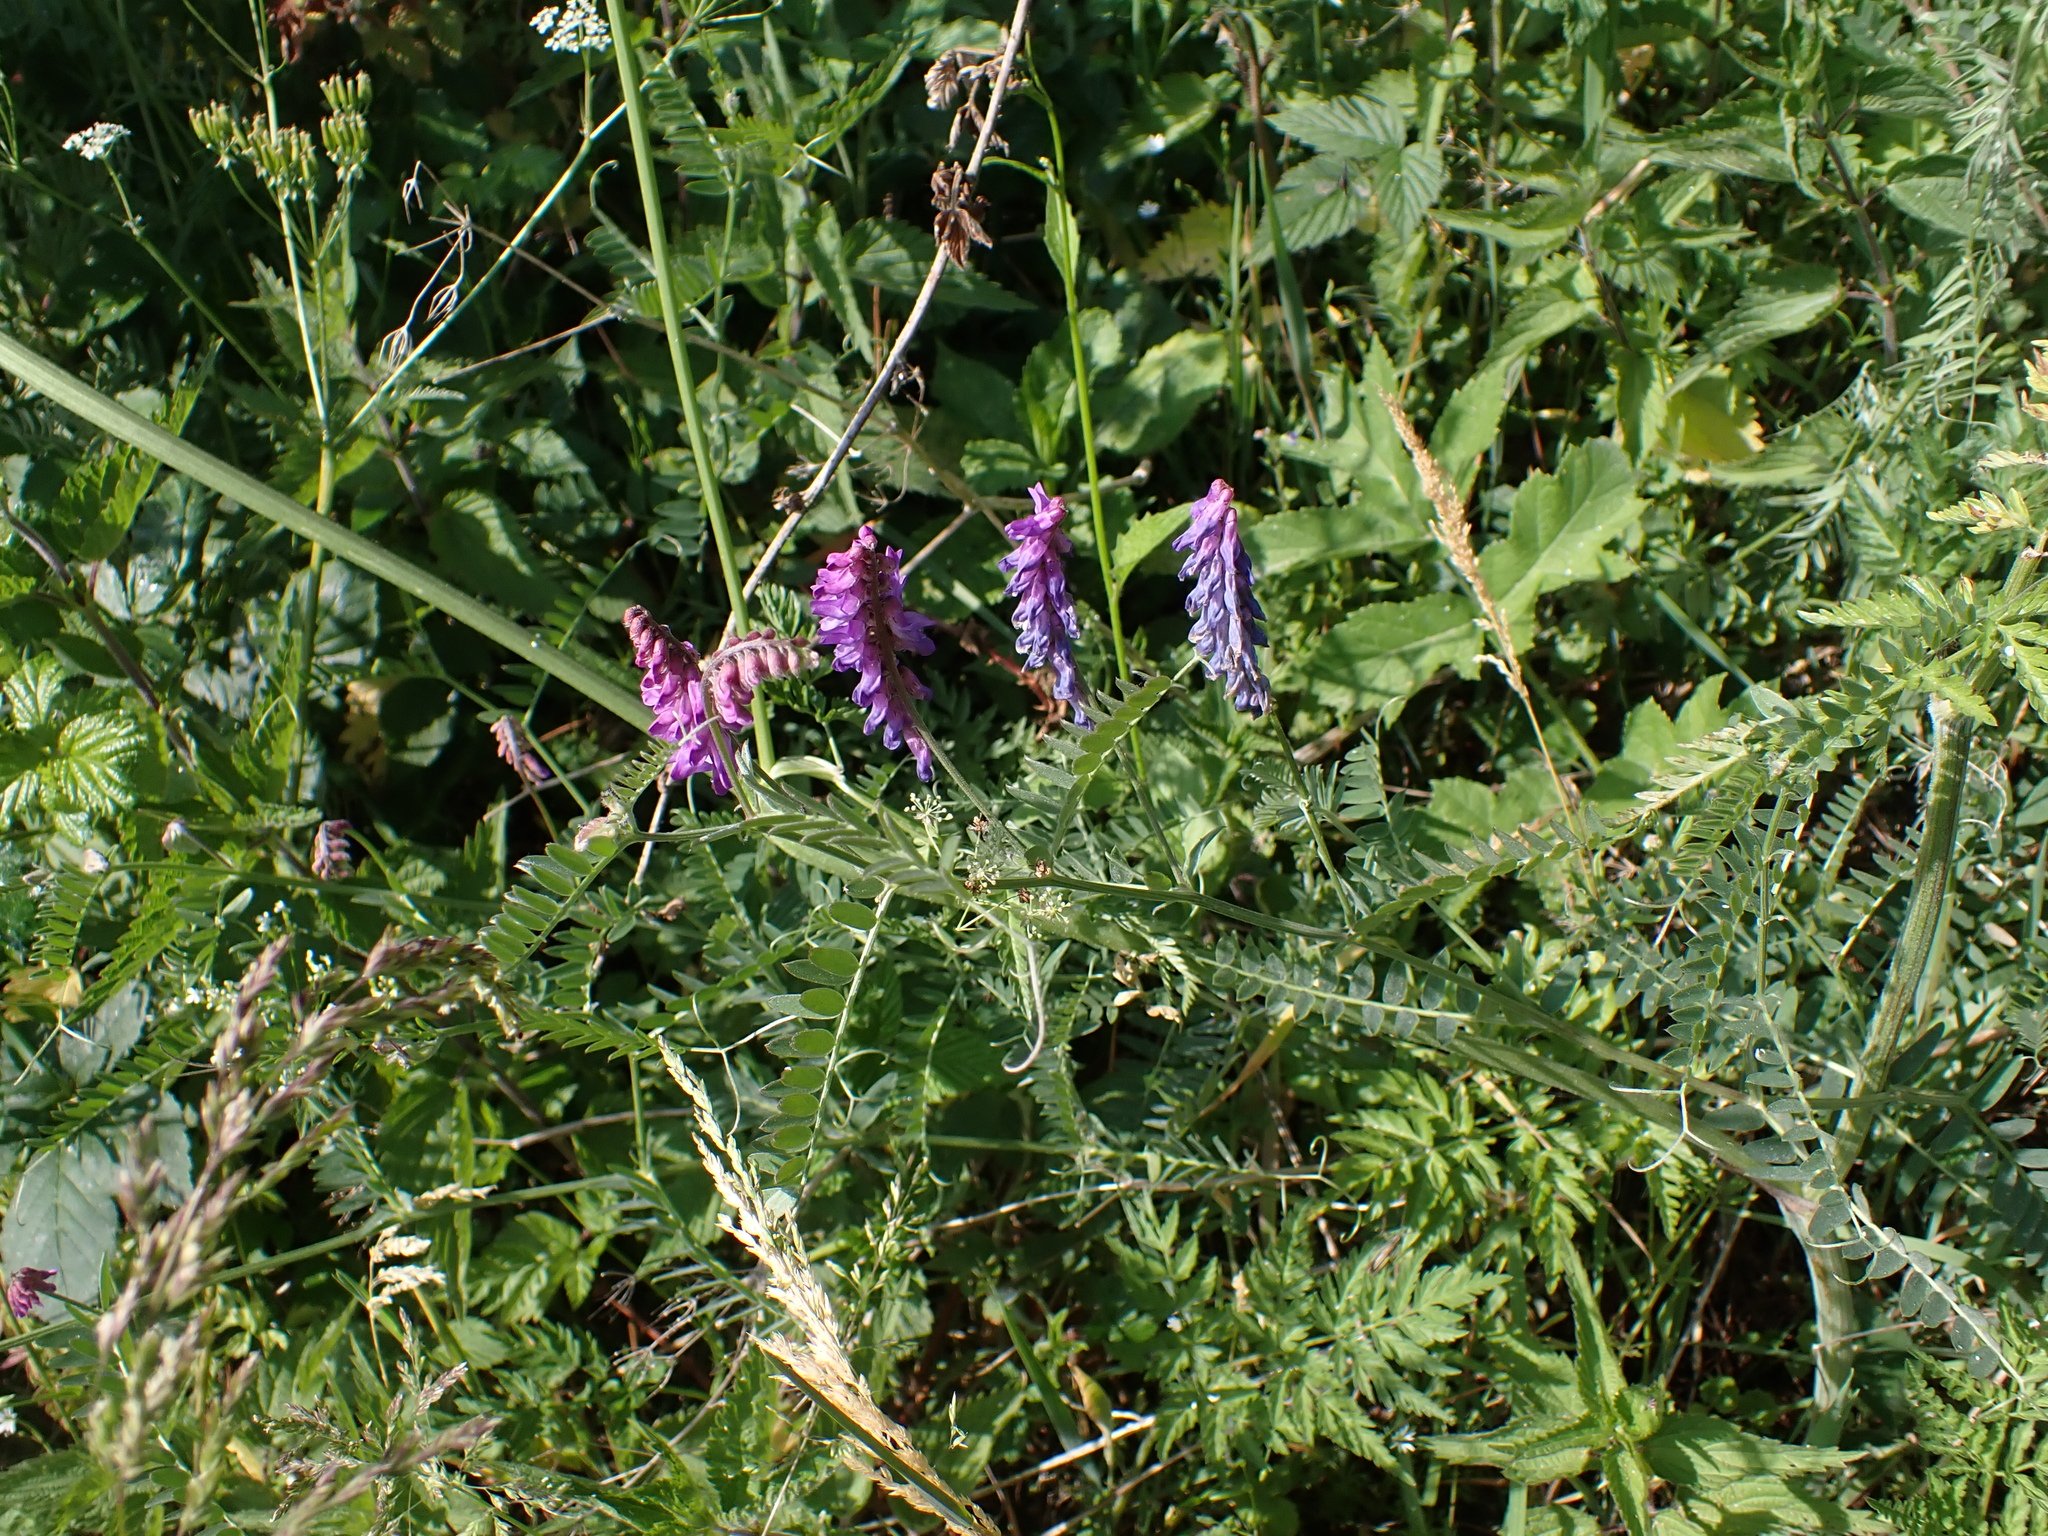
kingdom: Plantae
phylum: Tracheophyta
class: Magnoliopsida
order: Fabales
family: Fabaceae
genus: Vicia
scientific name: Vicia cracca
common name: Bird vetch
